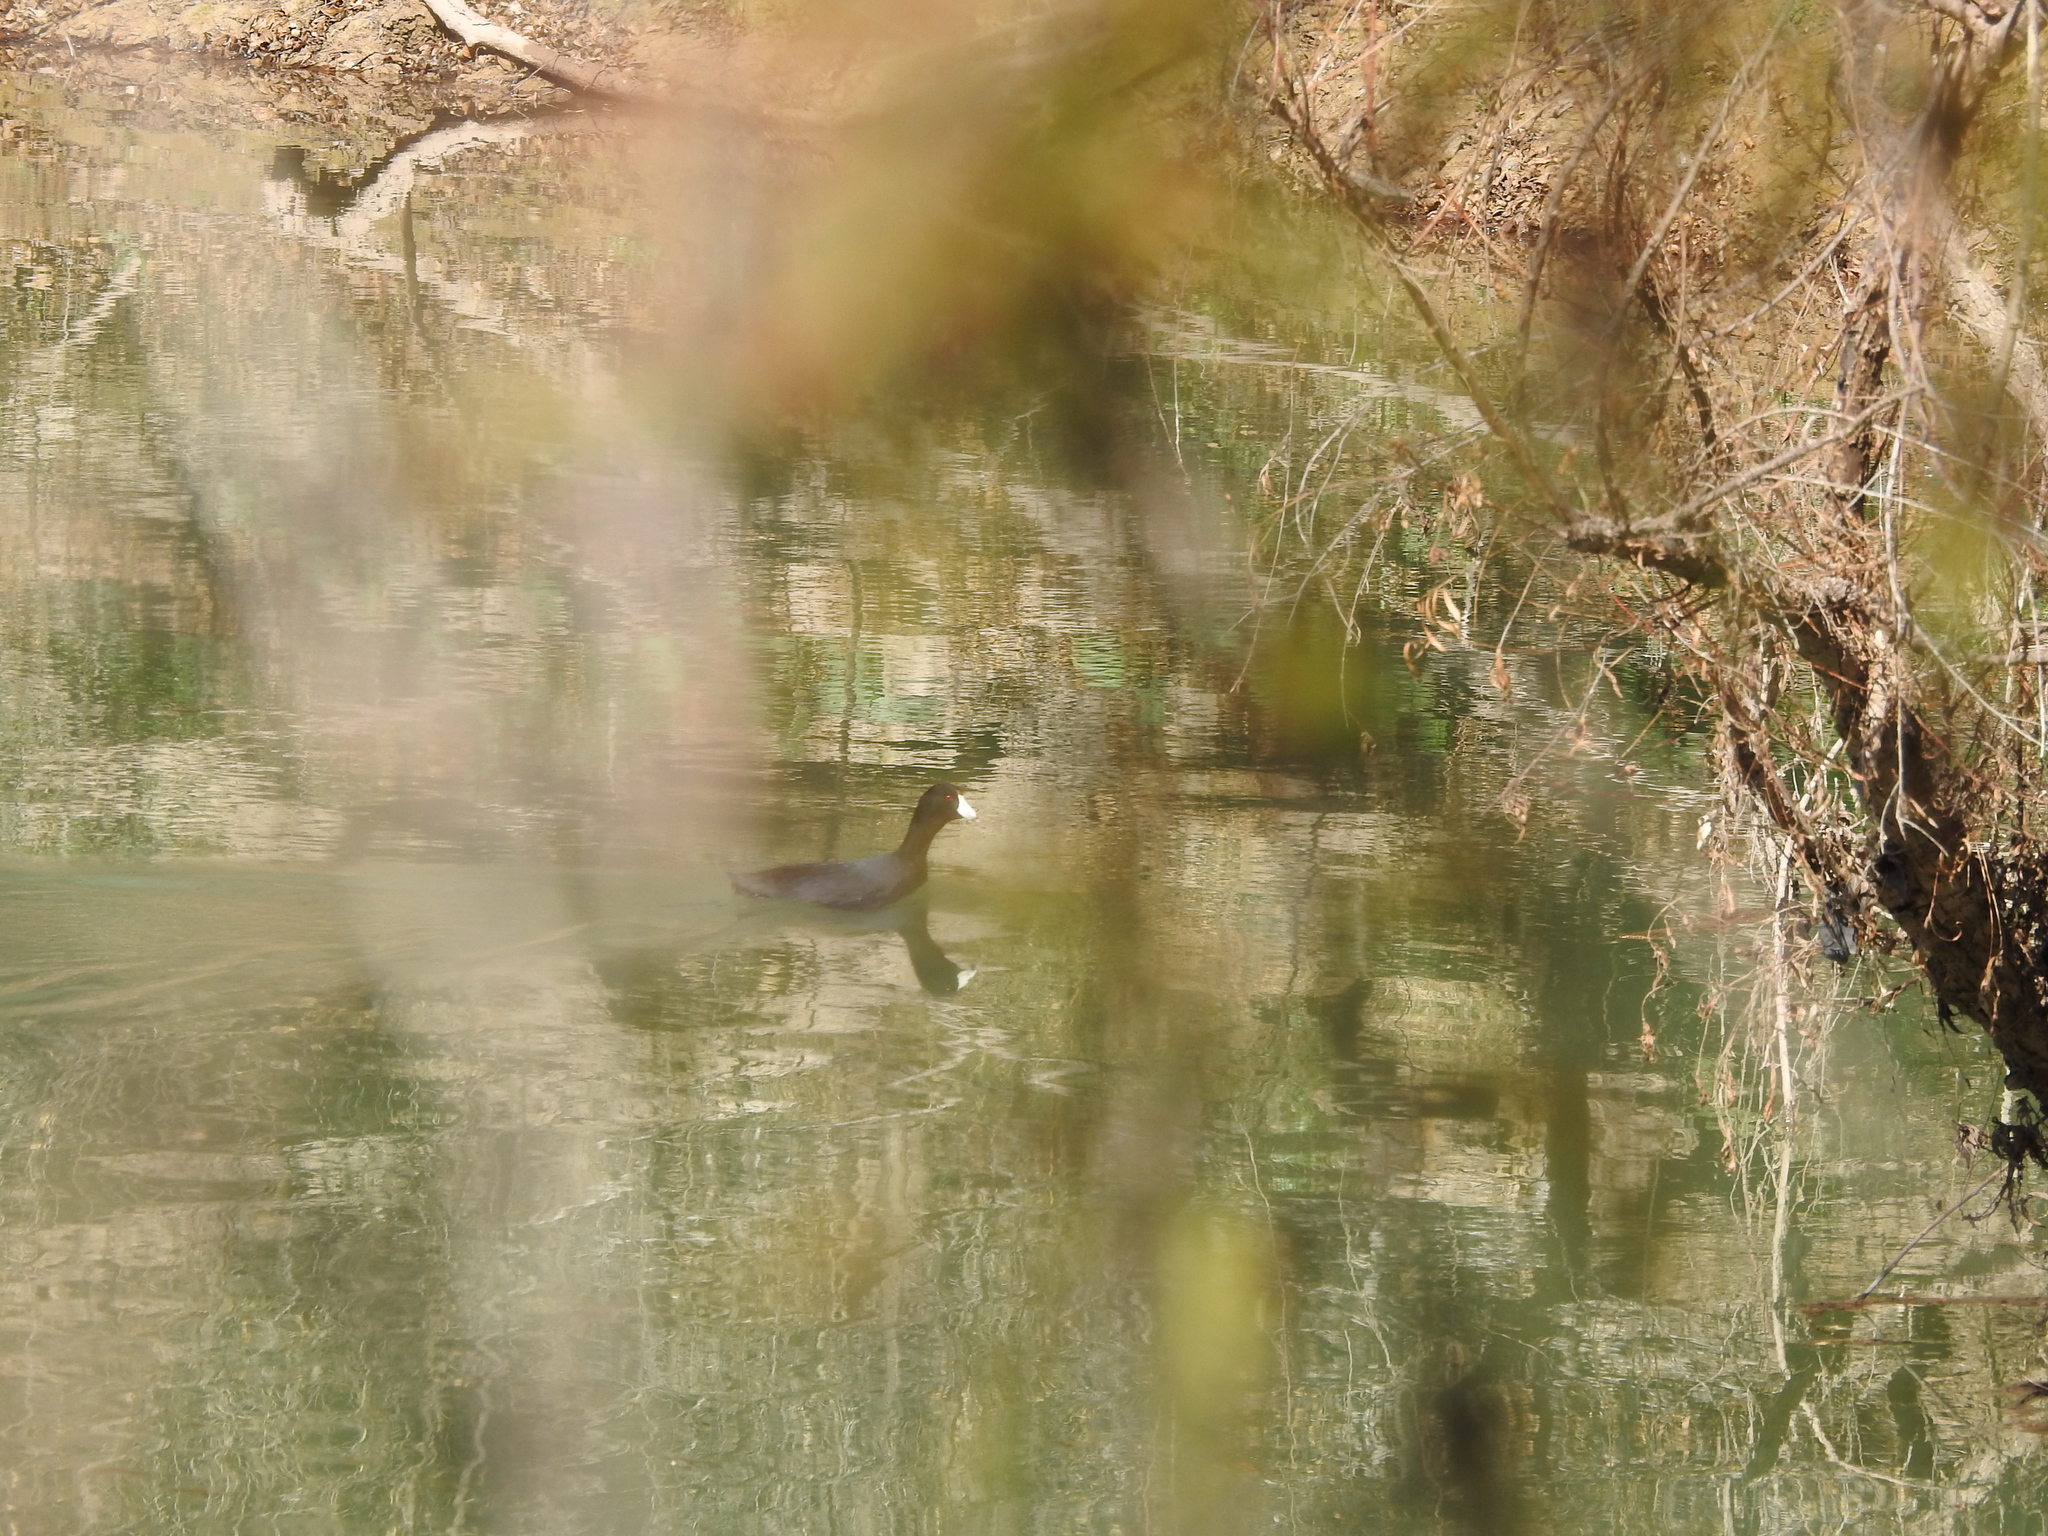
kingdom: Animalia
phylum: Chordata
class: Aves
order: Gruiformes
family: Rallidae
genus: Fulica
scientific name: Fulica americana
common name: American coot
